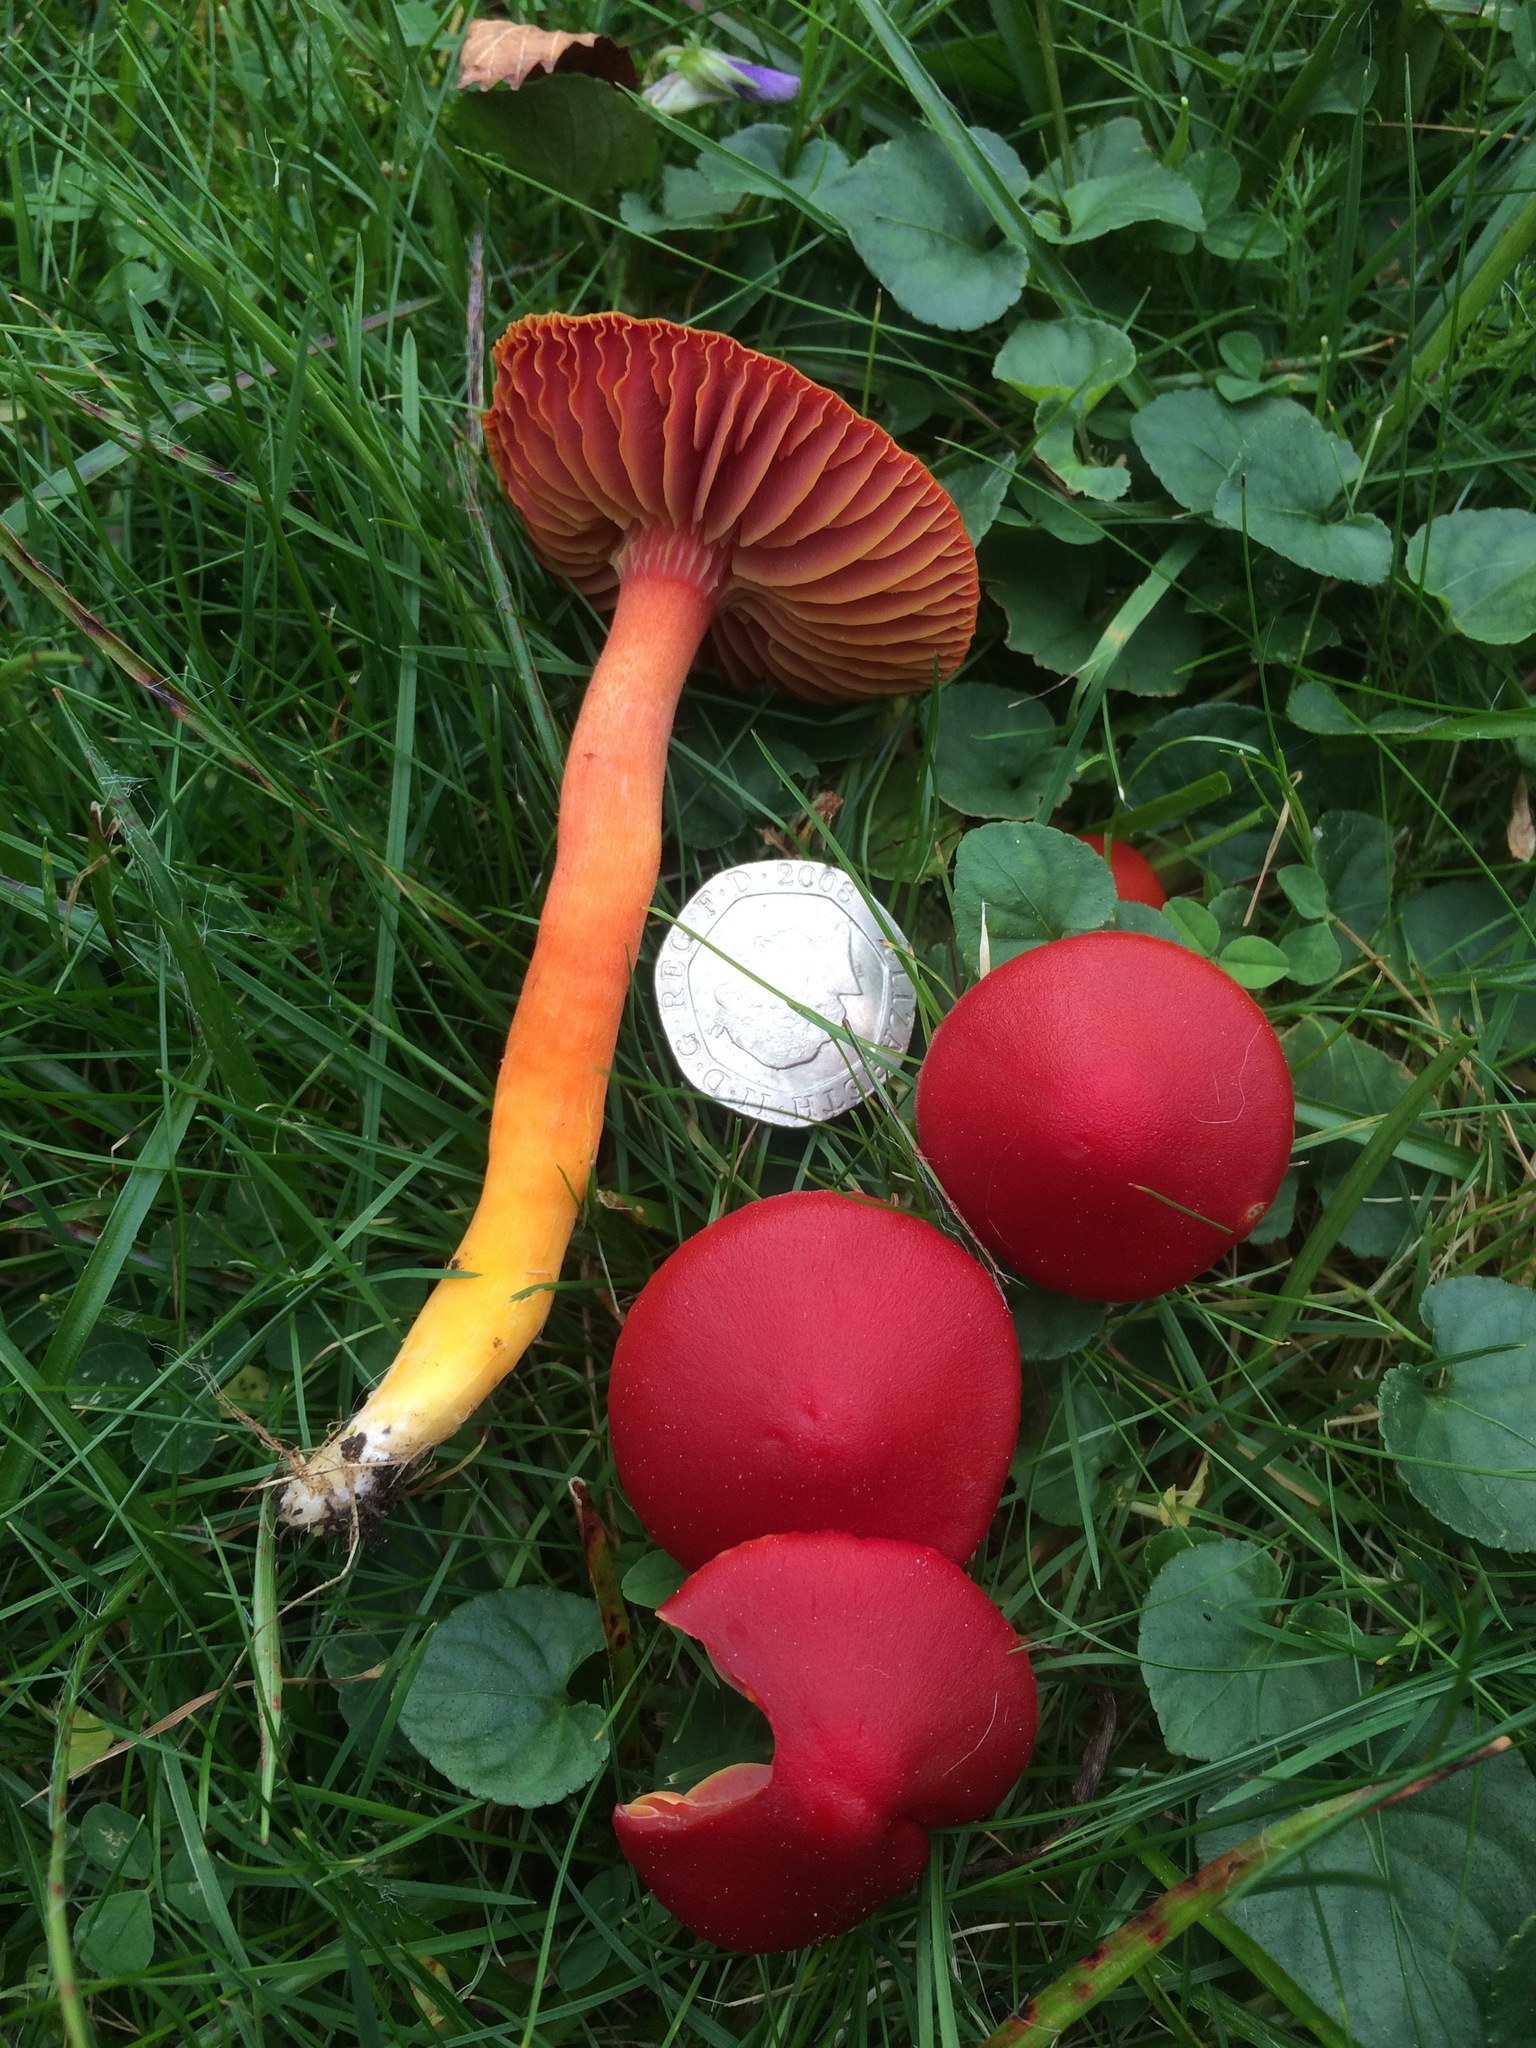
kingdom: Fungi
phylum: Basidiomycota
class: Agaricomycetes
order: Agaricales
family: Hygrophoraceae
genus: Hygrocybe
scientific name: Hygrocybe coccinea
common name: Scarlet hood
